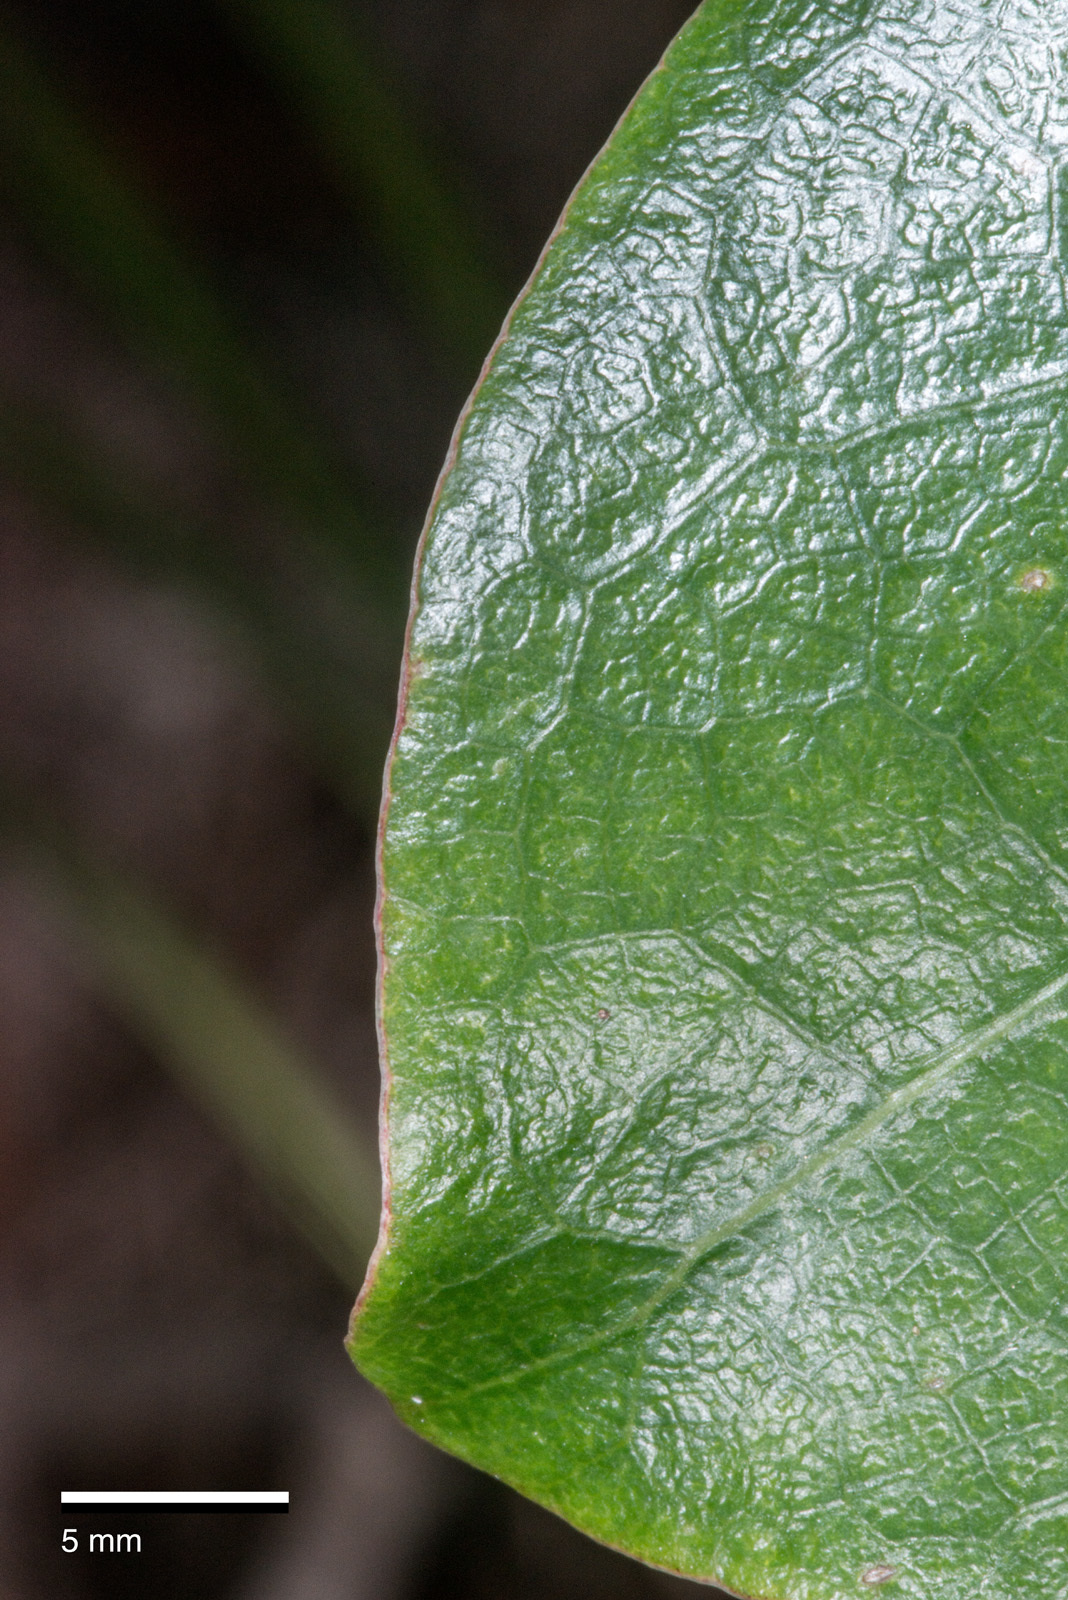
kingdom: Plantae
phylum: Tracheophyta
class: Magnoliopsida
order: Gentianales
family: Rubiaceae
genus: Coprosma
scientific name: Coprosma lucida
